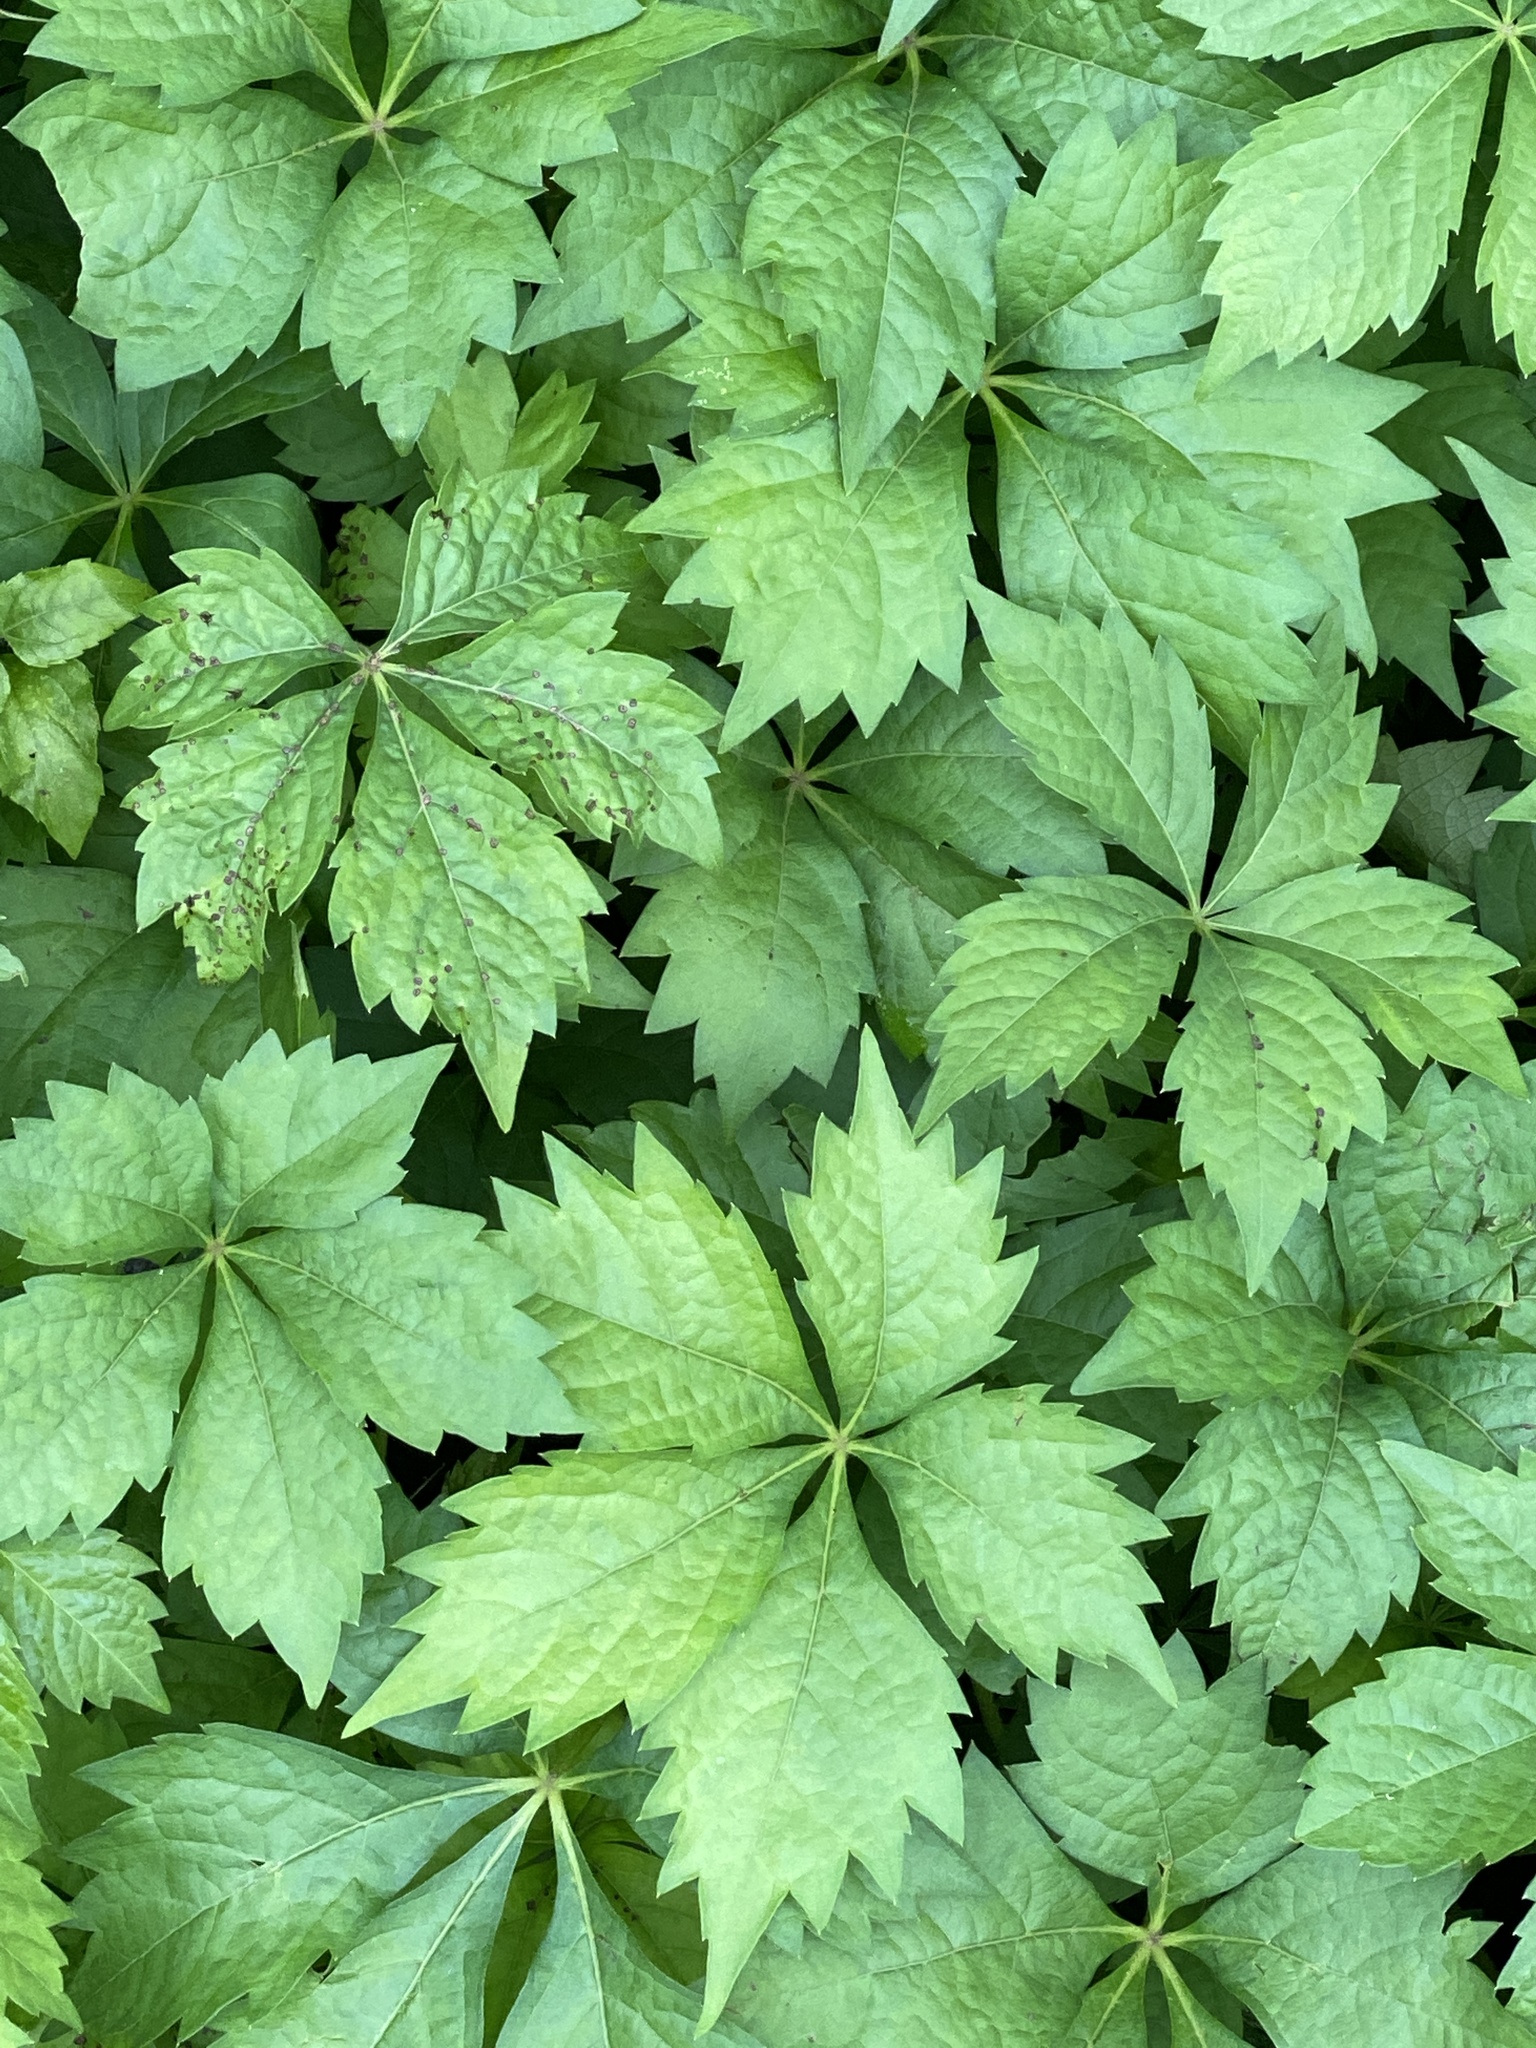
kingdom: Plantae
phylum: Tracheophyta
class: Magnoliopsida
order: Vitales
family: Vitaceae
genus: Parthenocissus
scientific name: Parthenocissus quinquefolia
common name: Virginia-creeper
